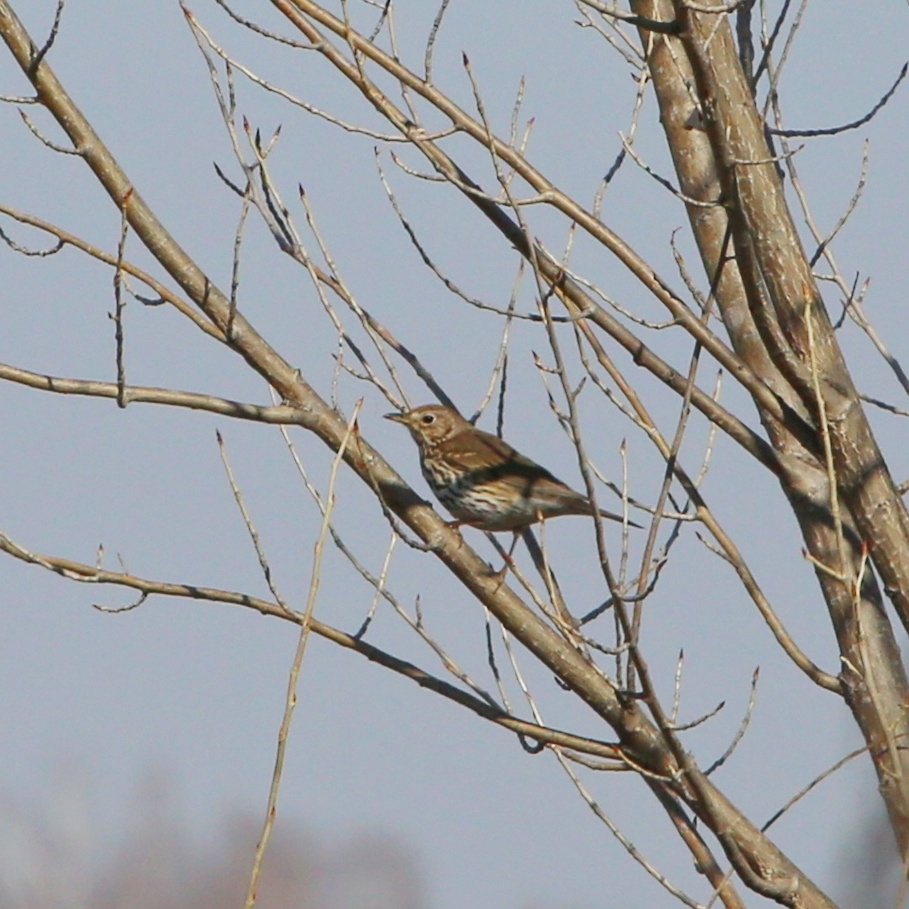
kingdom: Animalia
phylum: Chordata
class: Aves
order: Passeriformes
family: Turdidae
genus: Turdus
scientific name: Turdus philomelos
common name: Song thrush
